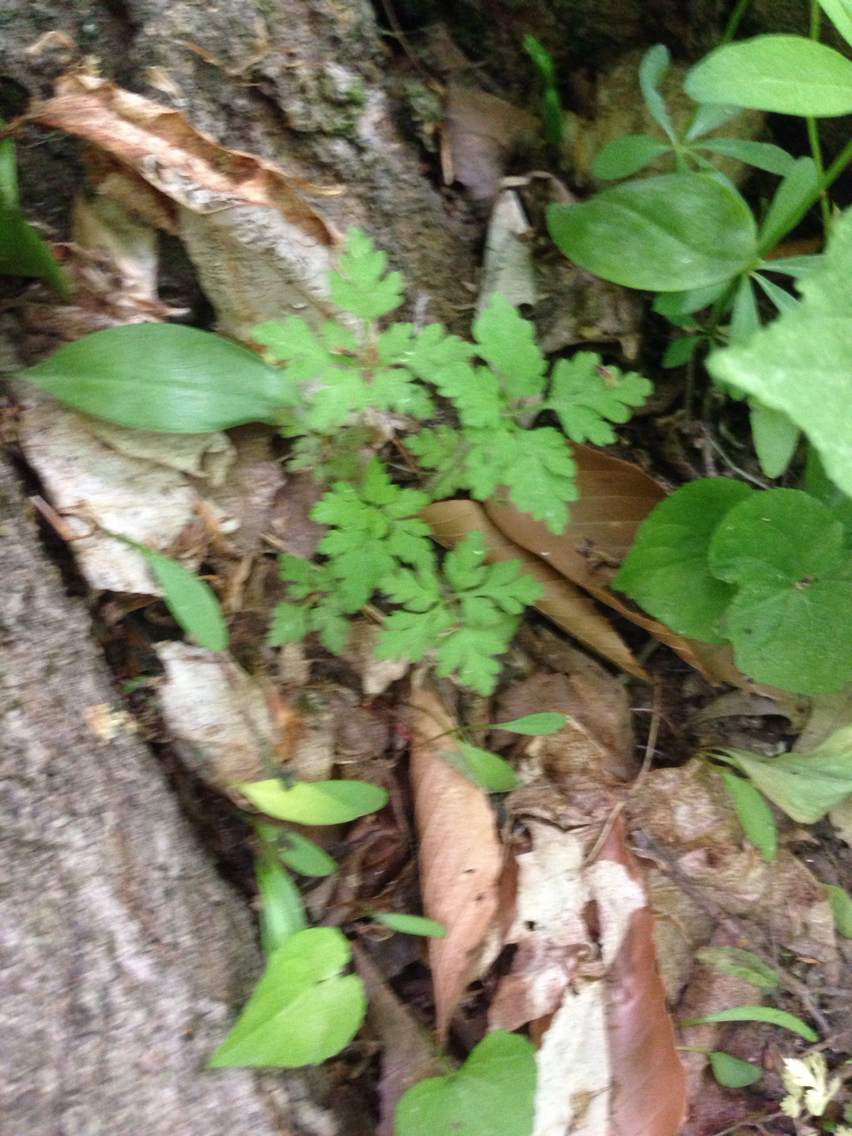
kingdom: Plantae
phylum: Tracheophyta
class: Magnoliopsida
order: Geraniales
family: Geraniaceae
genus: Geranium
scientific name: Geranium robertianum
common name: Herb-robert
